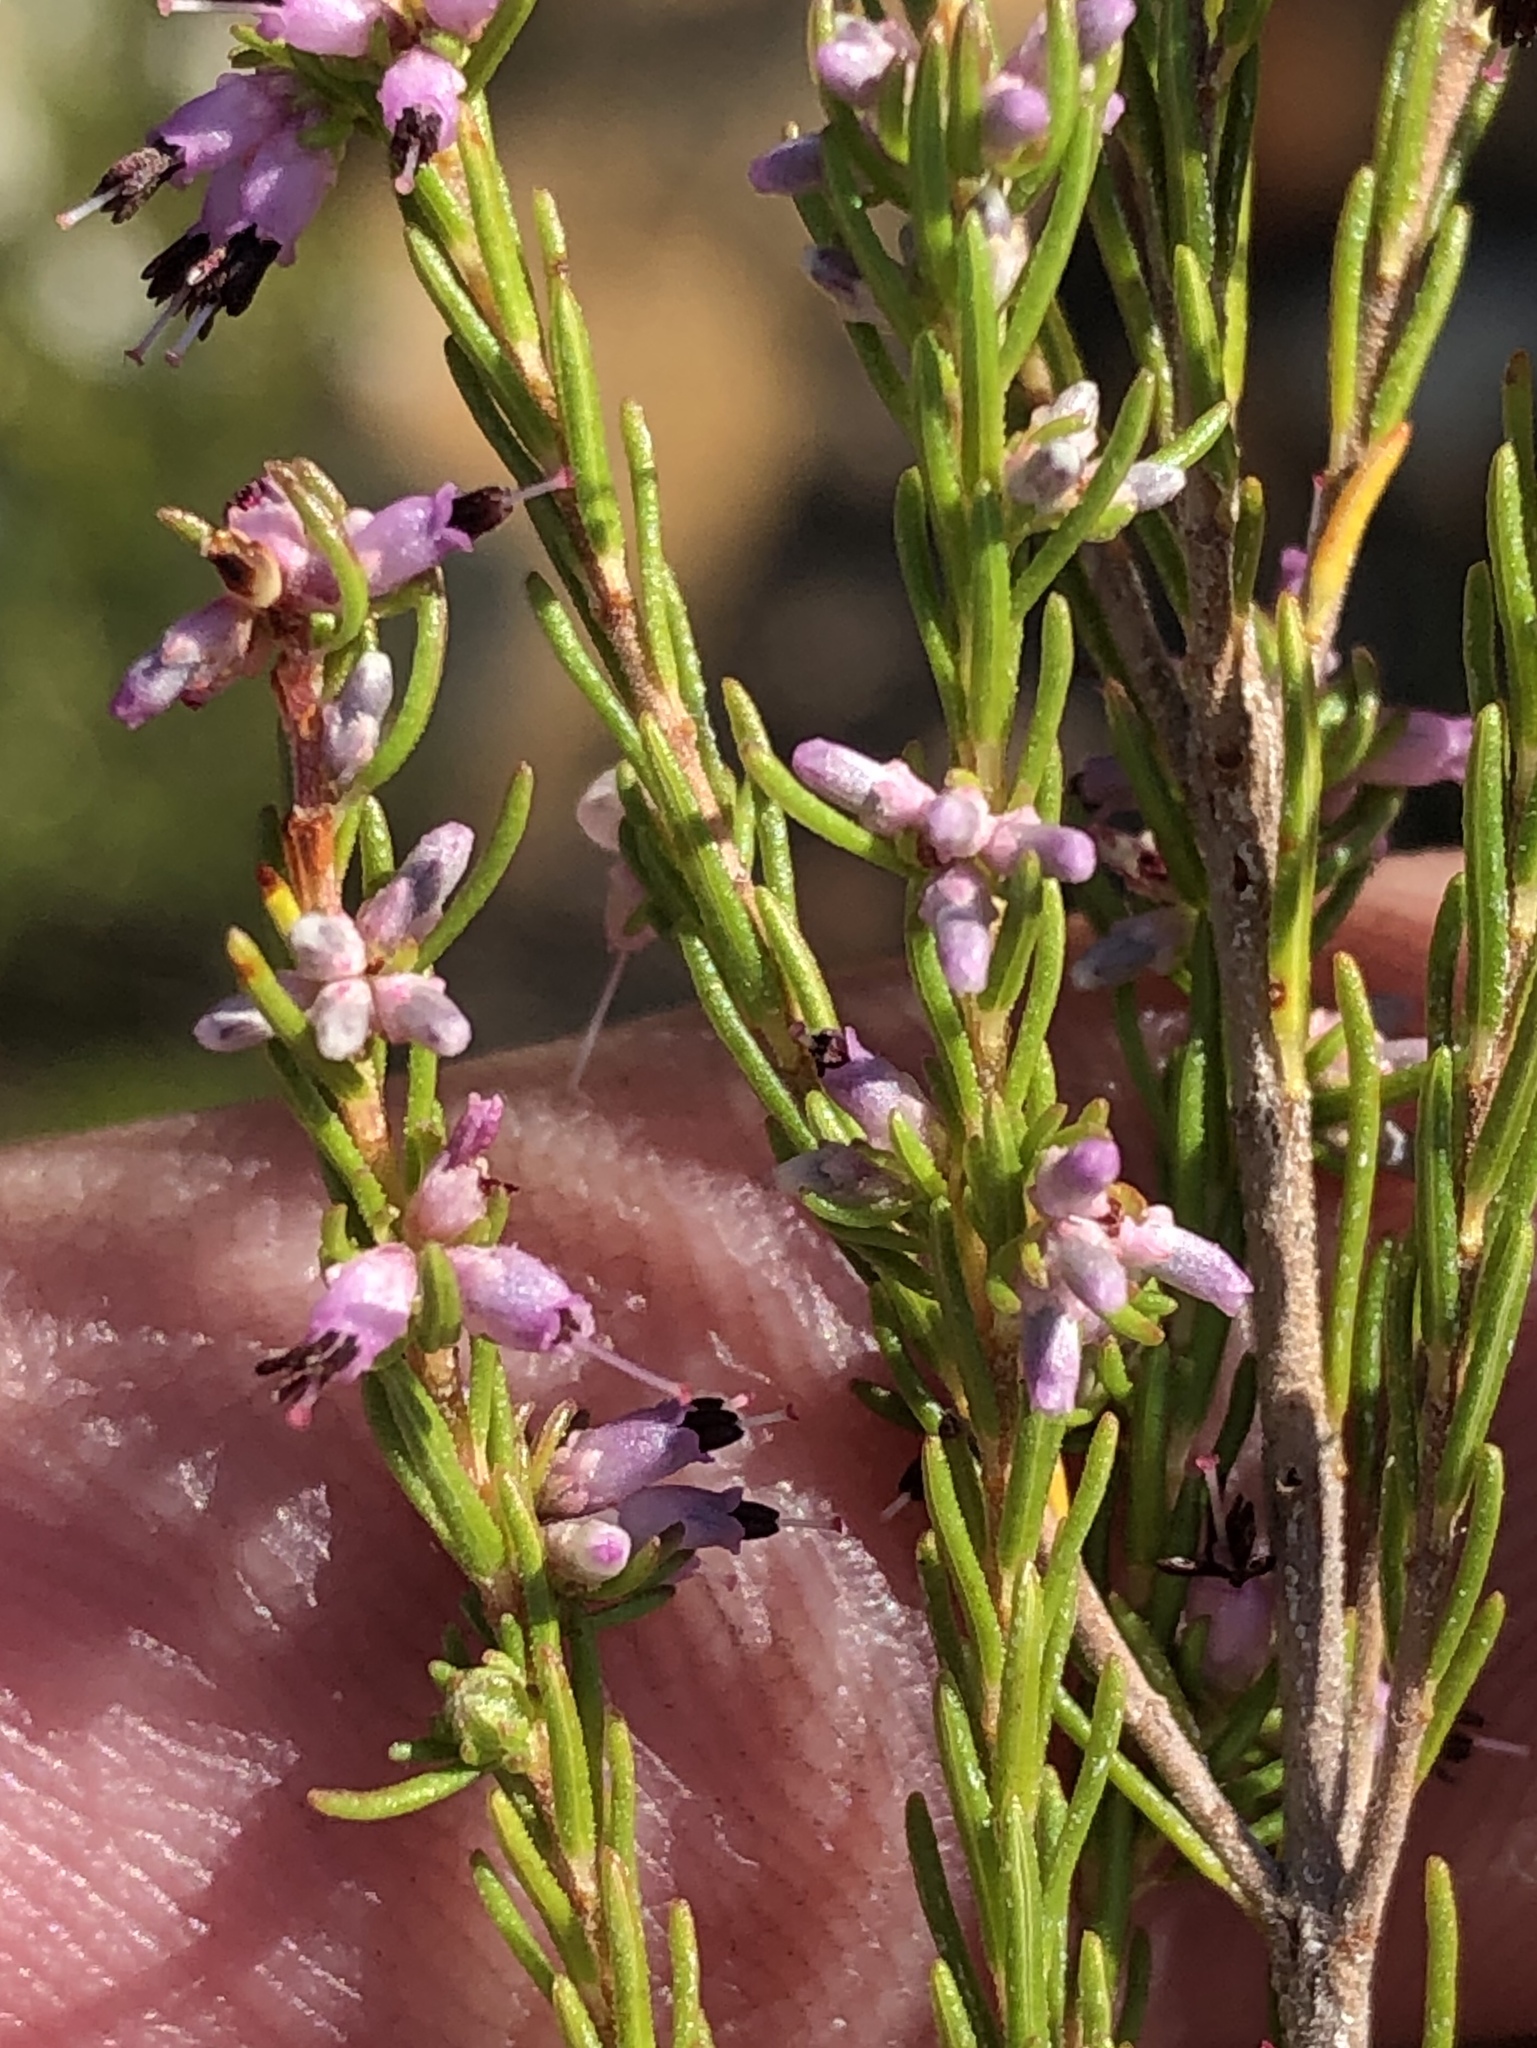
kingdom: Plantae
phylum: Tracheophyta
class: Magnoliopsida
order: Ericales
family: Ericaceae
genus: Erica
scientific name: Erica thamnoides
